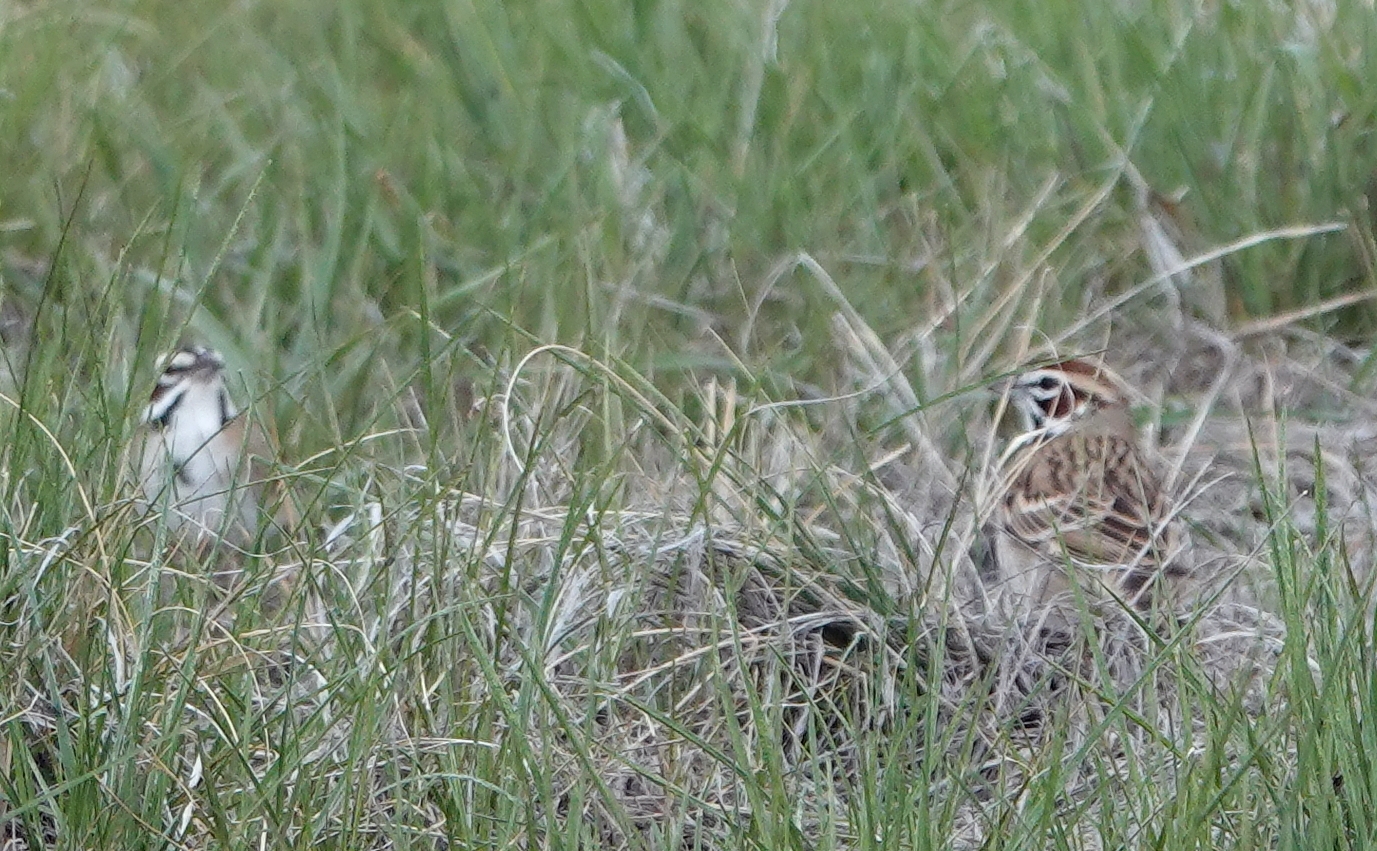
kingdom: Animalia
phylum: Chordata
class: Aves
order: Passeriformes
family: Passerellidae
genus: Chondestes
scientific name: Chondestes grammacus
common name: Lark sparrow
